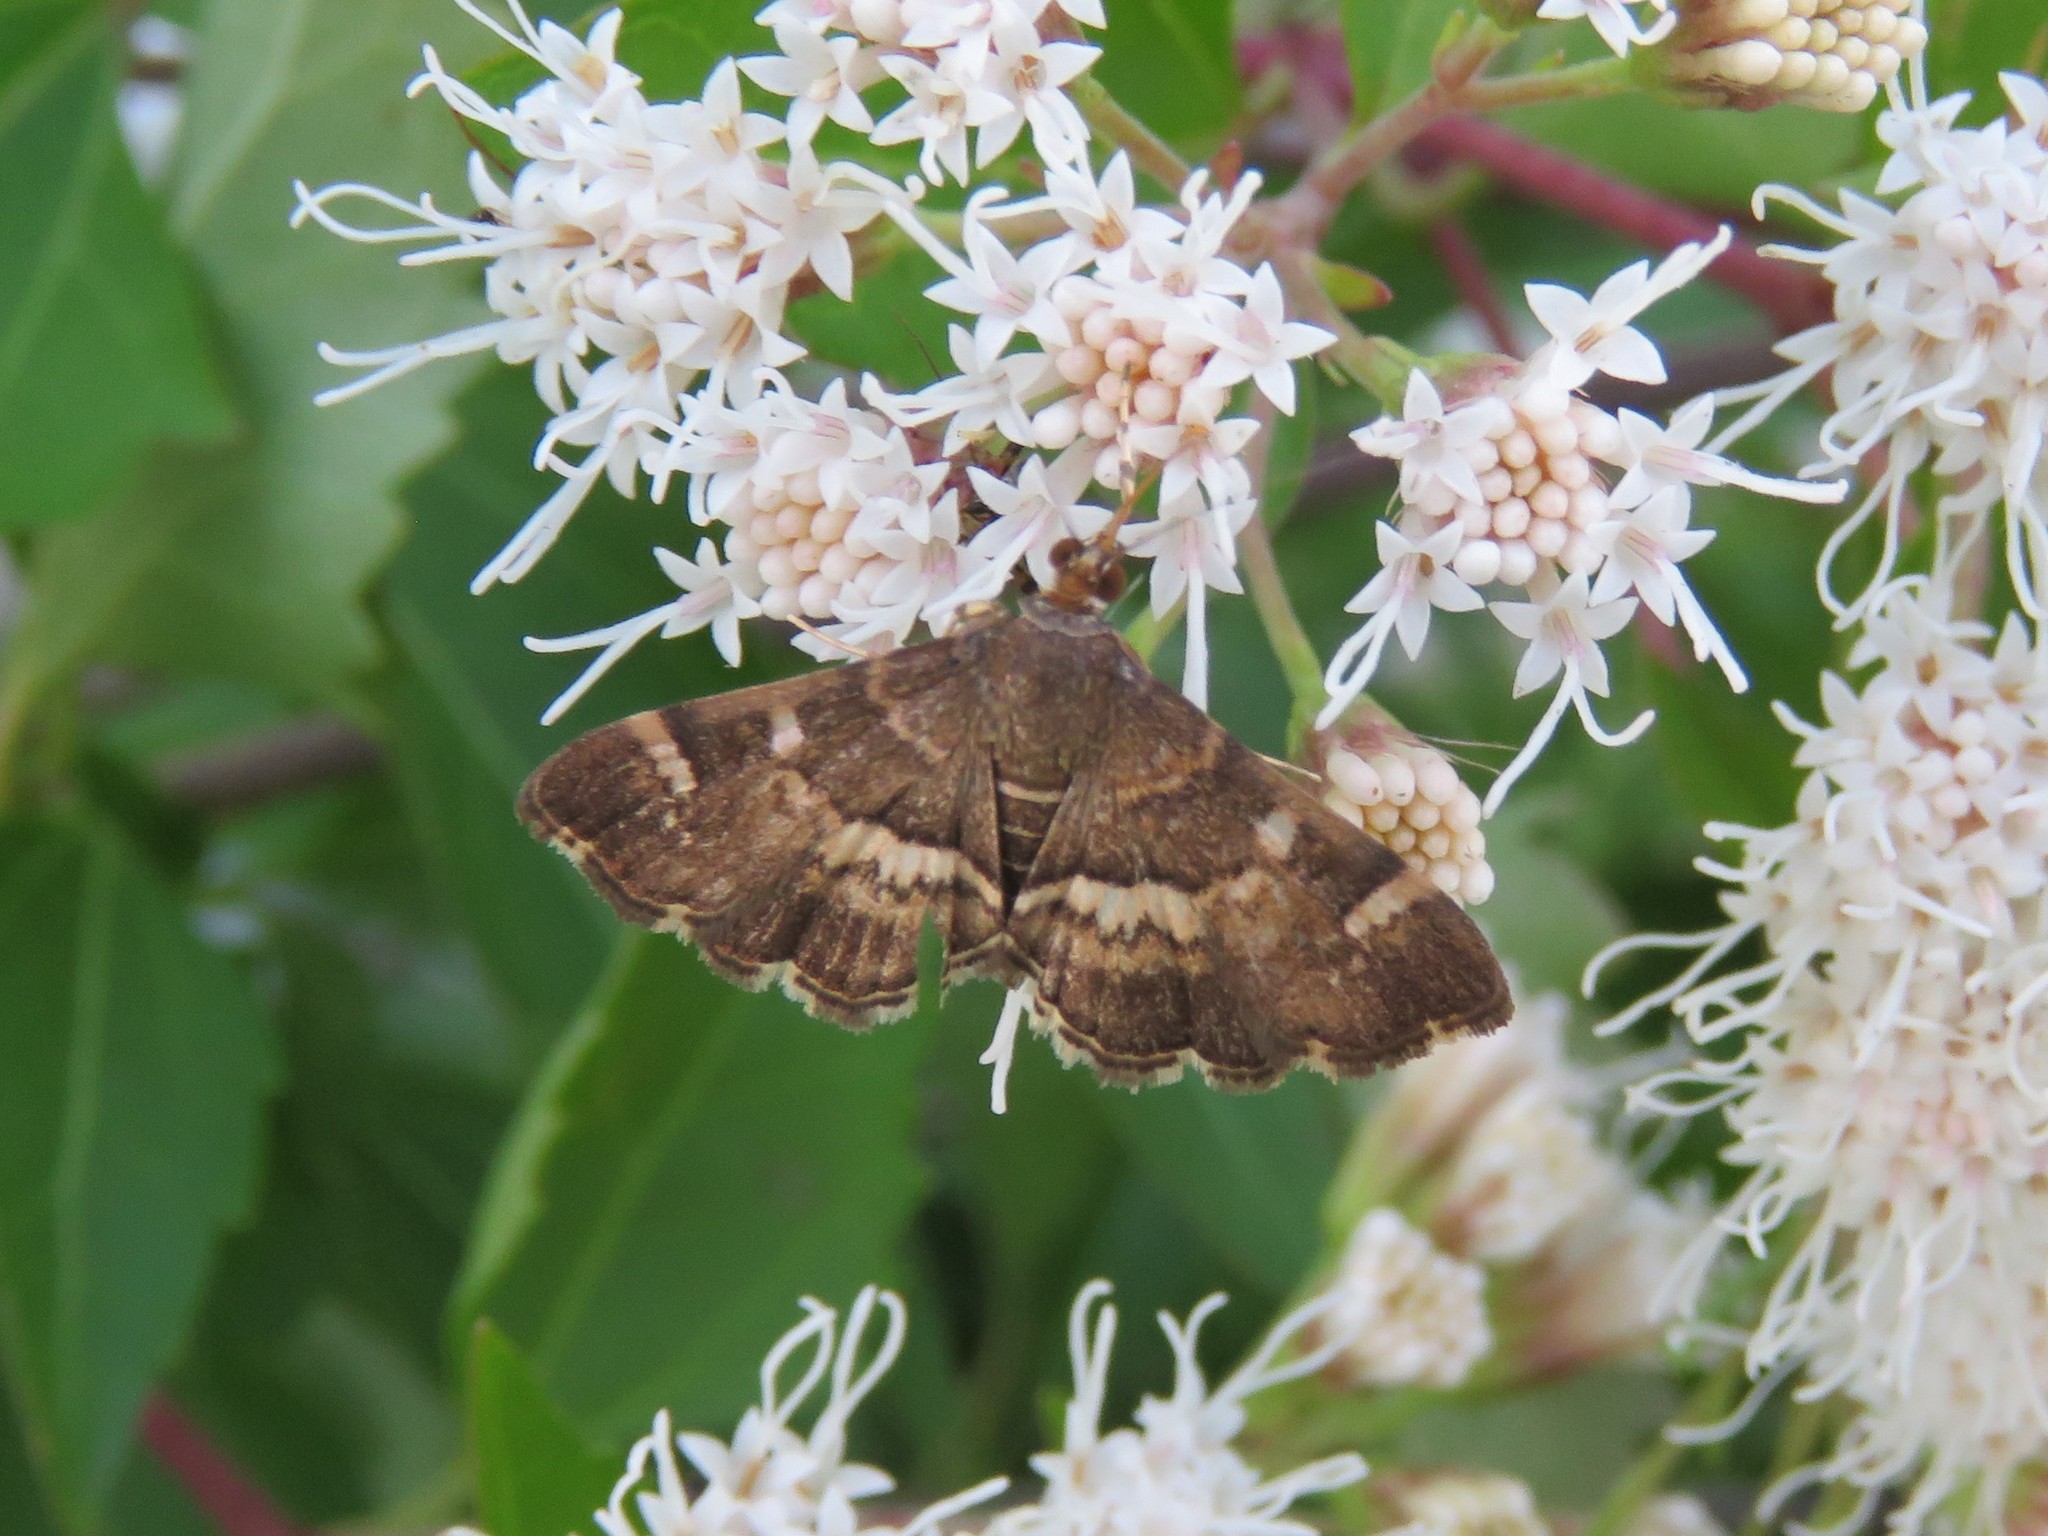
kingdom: Animalia
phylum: Arthropoda
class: Insecta
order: Lepidoptera
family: Crambidae
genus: Hymenia
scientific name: Hymenia perspectalis
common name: Spotted beet webworm
